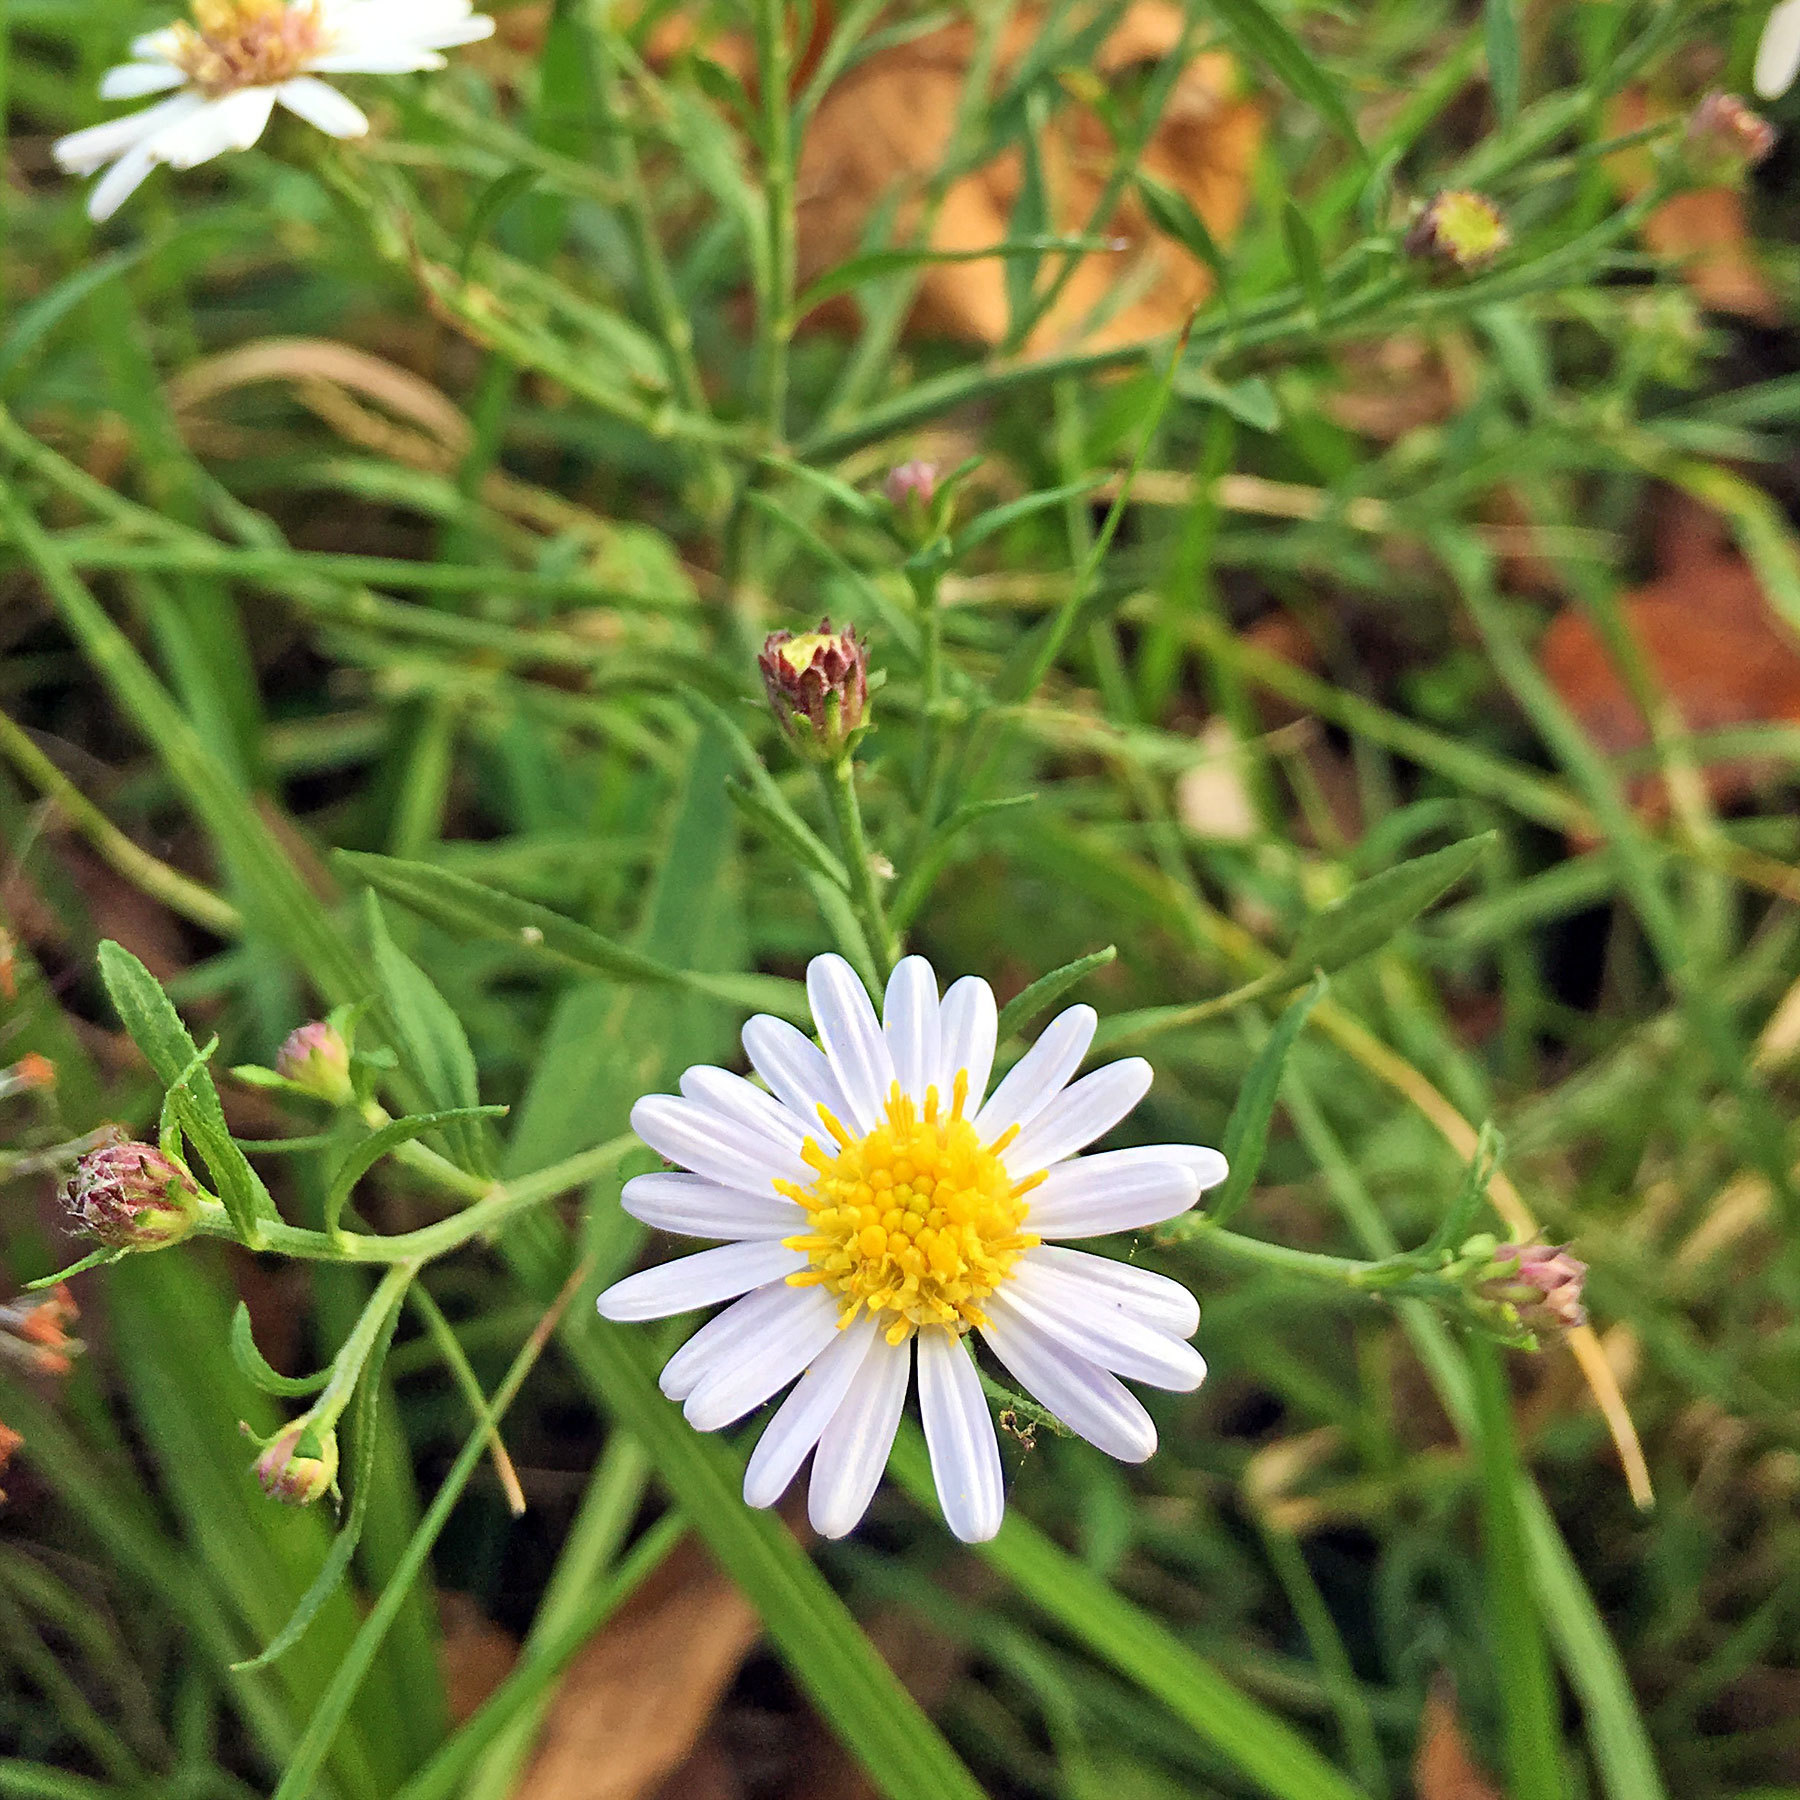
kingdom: Plantae
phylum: Tracheophyta
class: Magnoliopsida
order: Asterales
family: Asteraceae
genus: Aster
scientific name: Aster microcephalus
